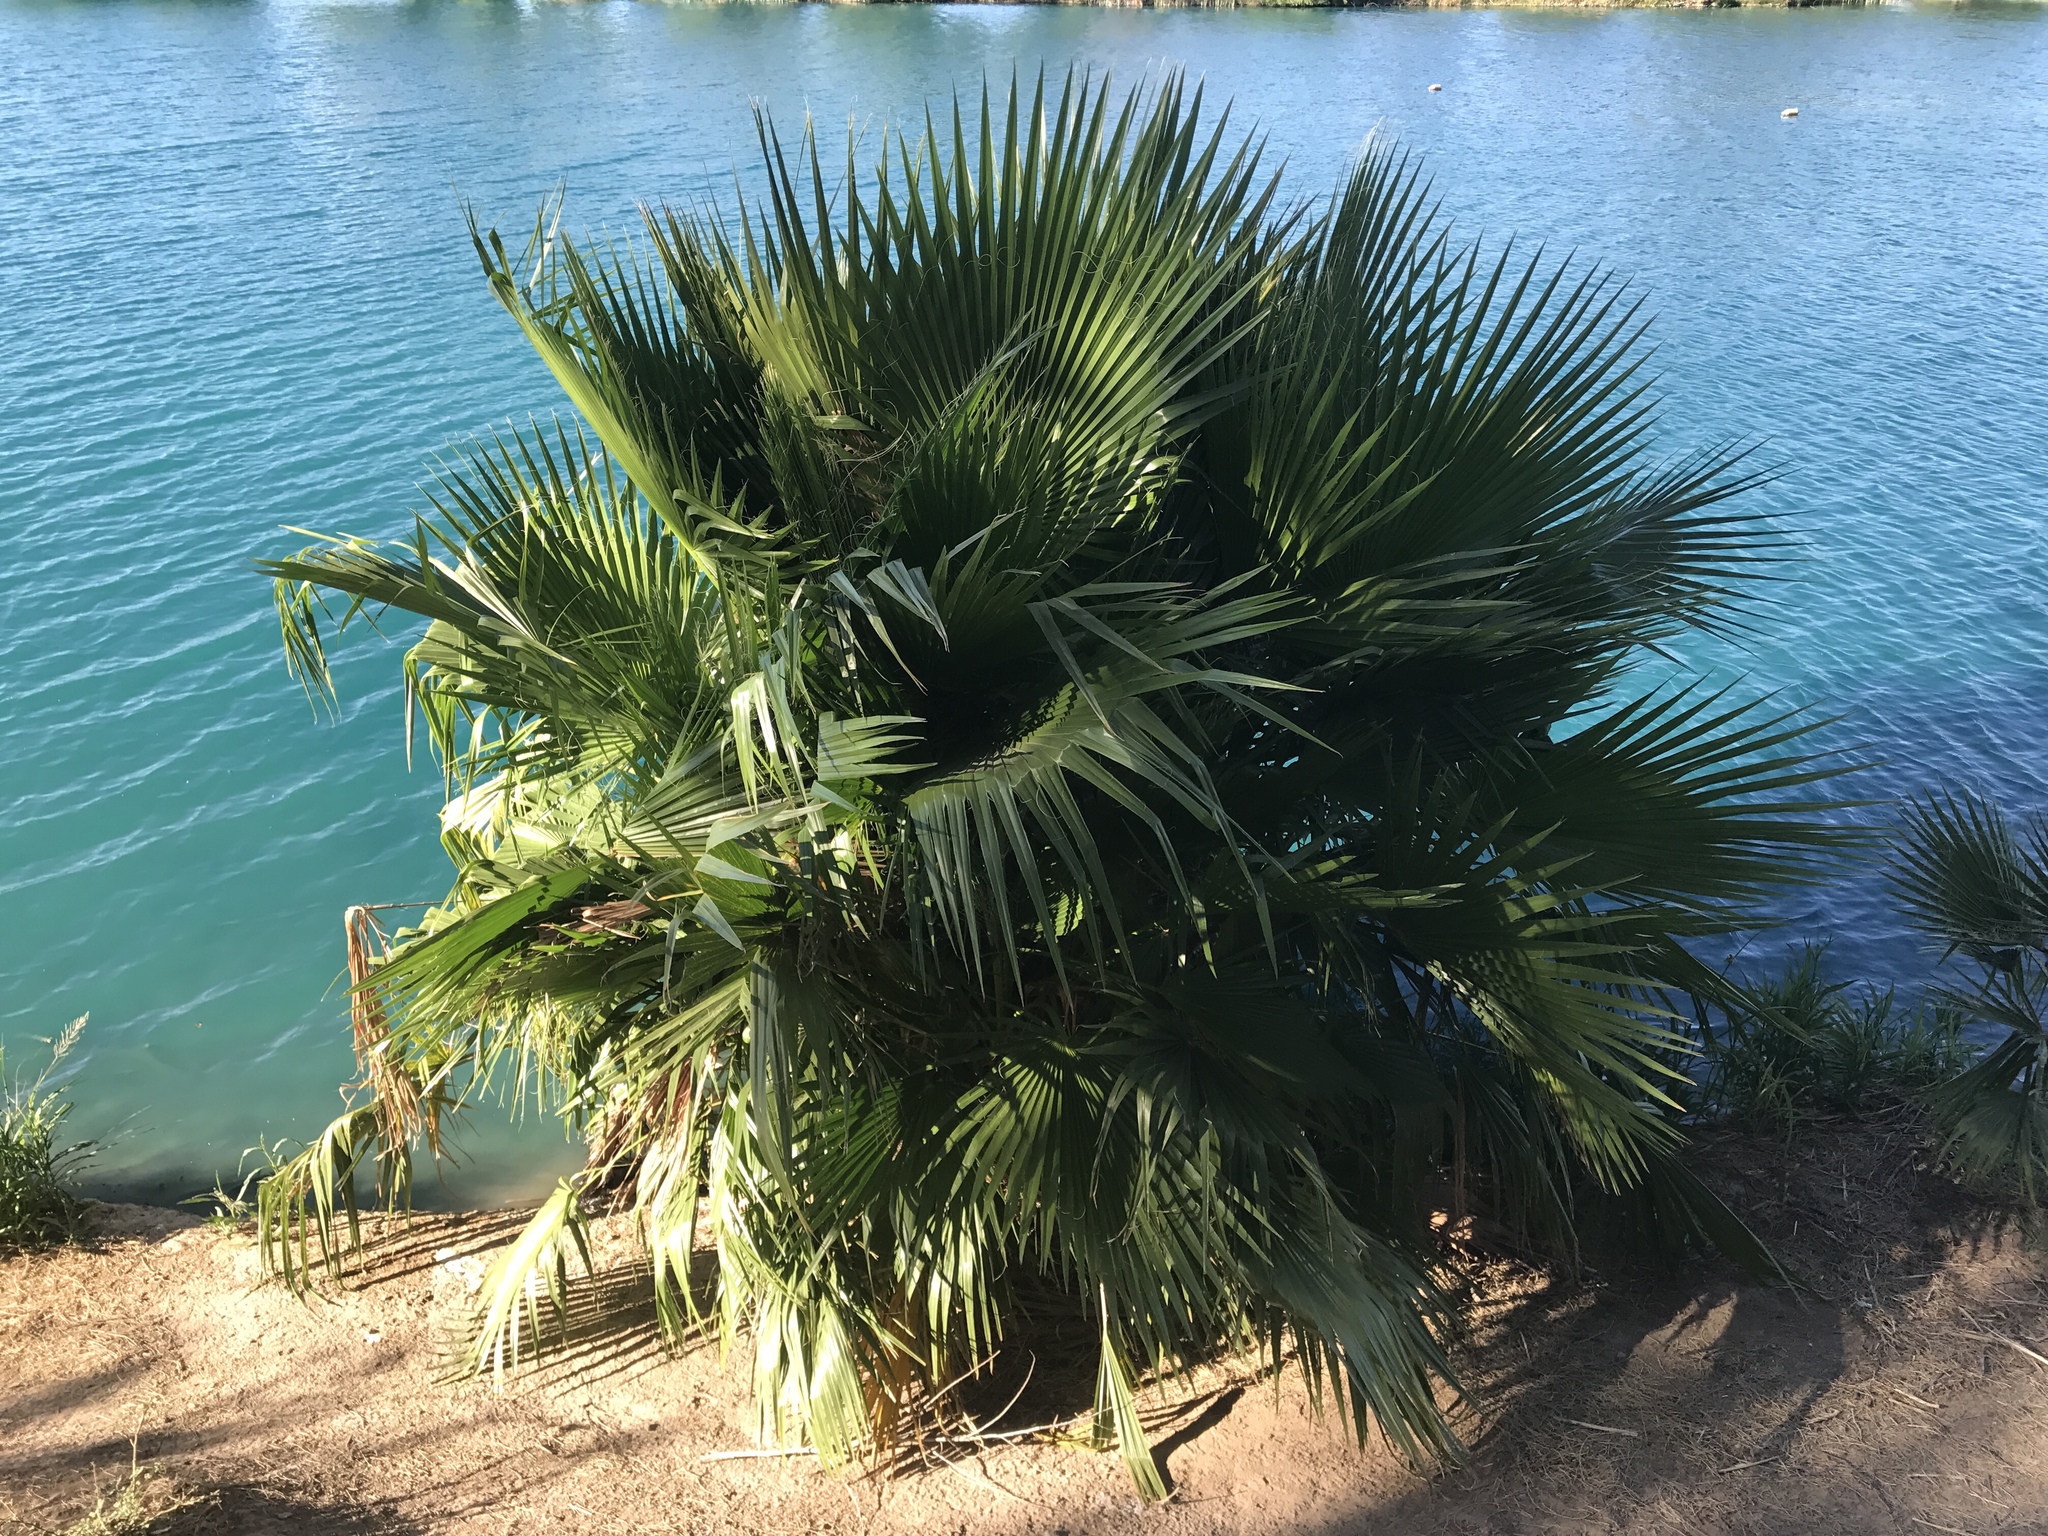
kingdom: Plantae
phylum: Tracheophyta
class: Liliopsida
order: Arecales
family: Arecaceae
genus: Washingtonia
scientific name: Washingtonia filifera
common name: California fan palm
